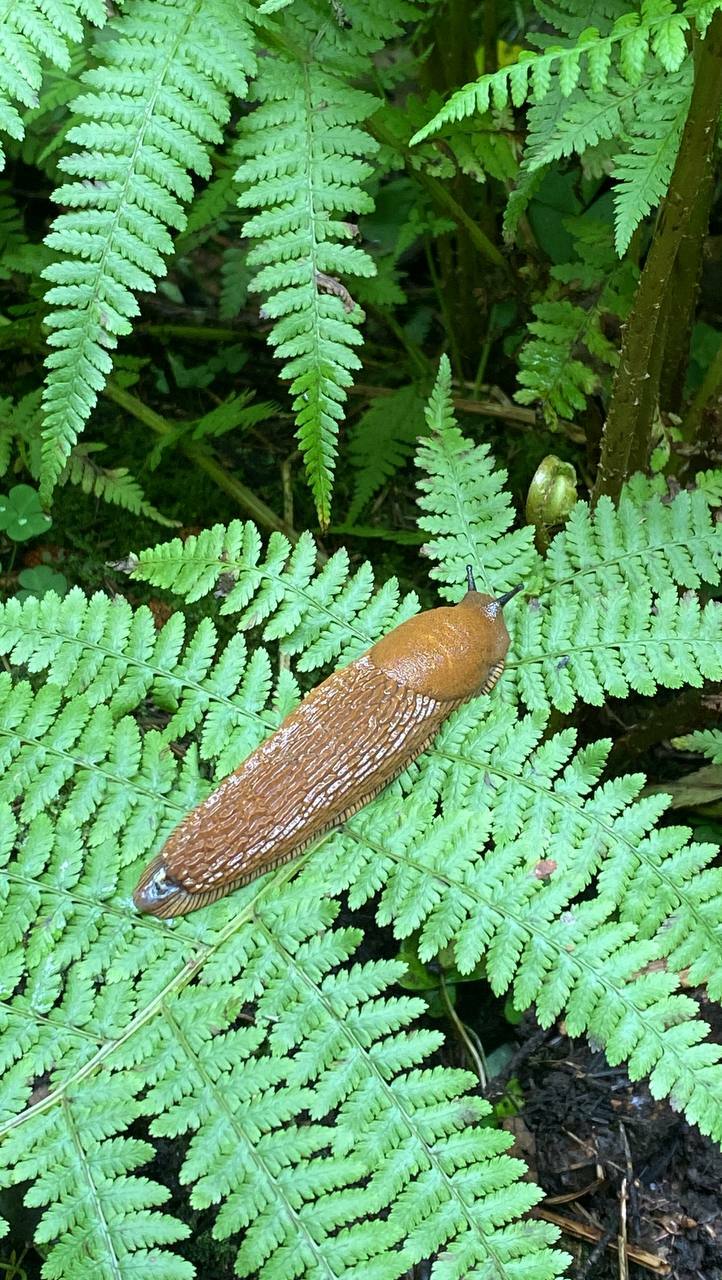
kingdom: Animalia
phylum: Mollusca
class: Gastropoda
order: Stylommatophora
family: Arionidae
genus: Arion
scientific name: Arion vulgaris
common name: Lusitanian slug
